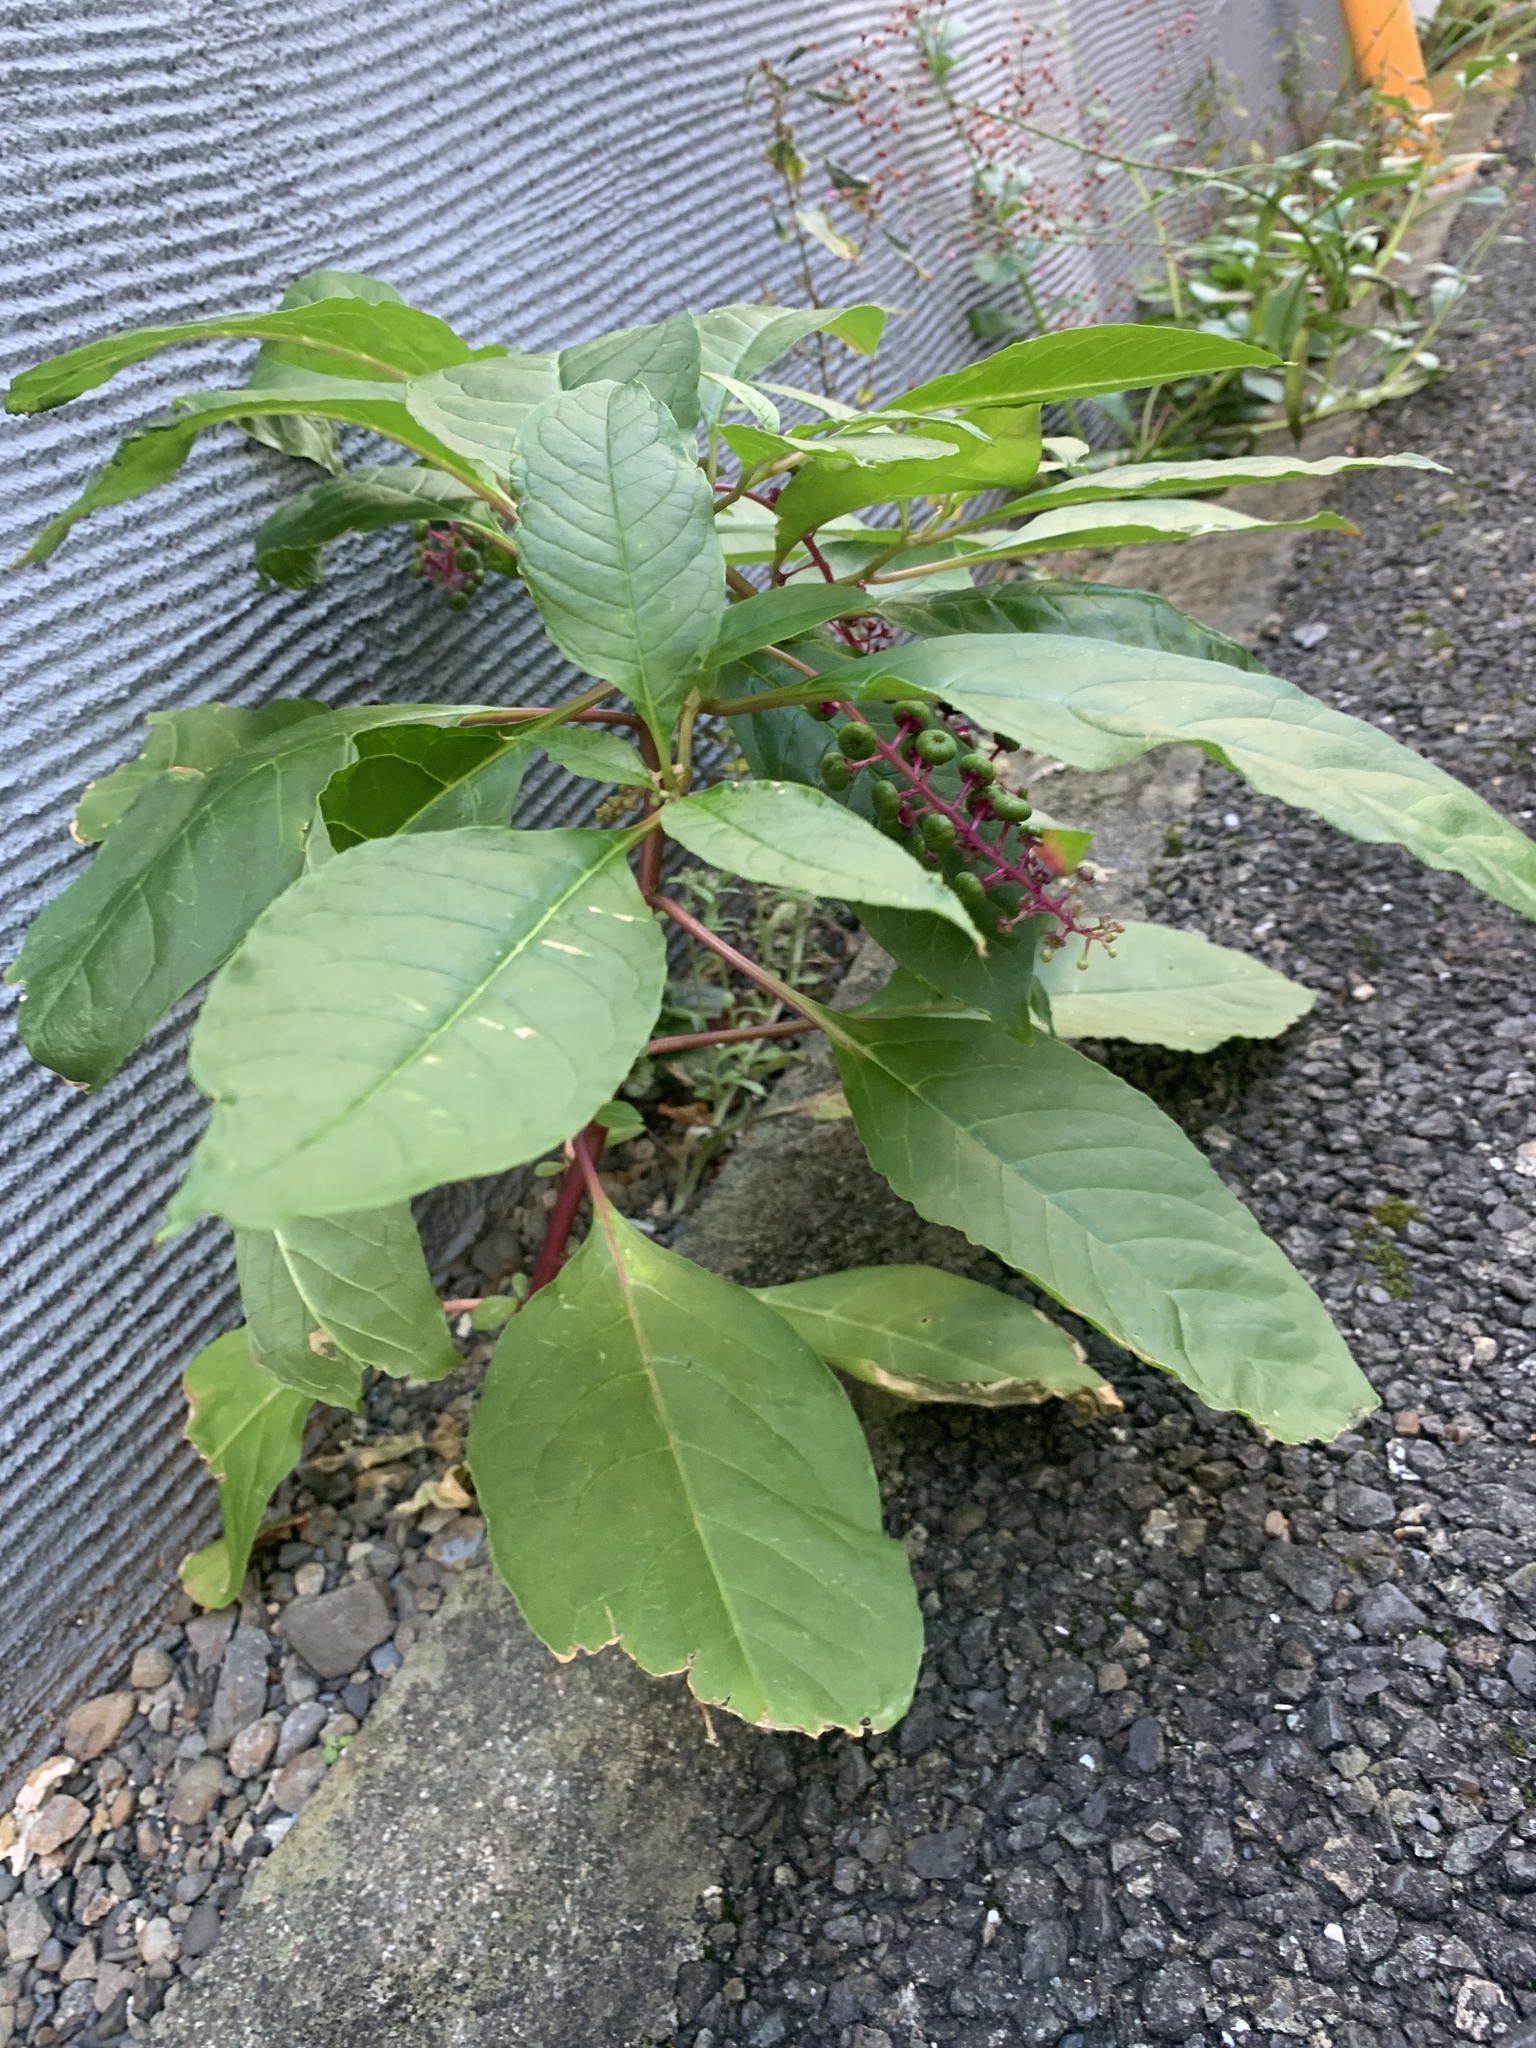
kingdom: Plantae
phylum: Tracheophyta
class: Magnoliopsida
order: Caryophyllales
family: Phytolaccaceae
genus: Phytolacca
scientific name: Phytolacca americana
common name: American pokeweed
